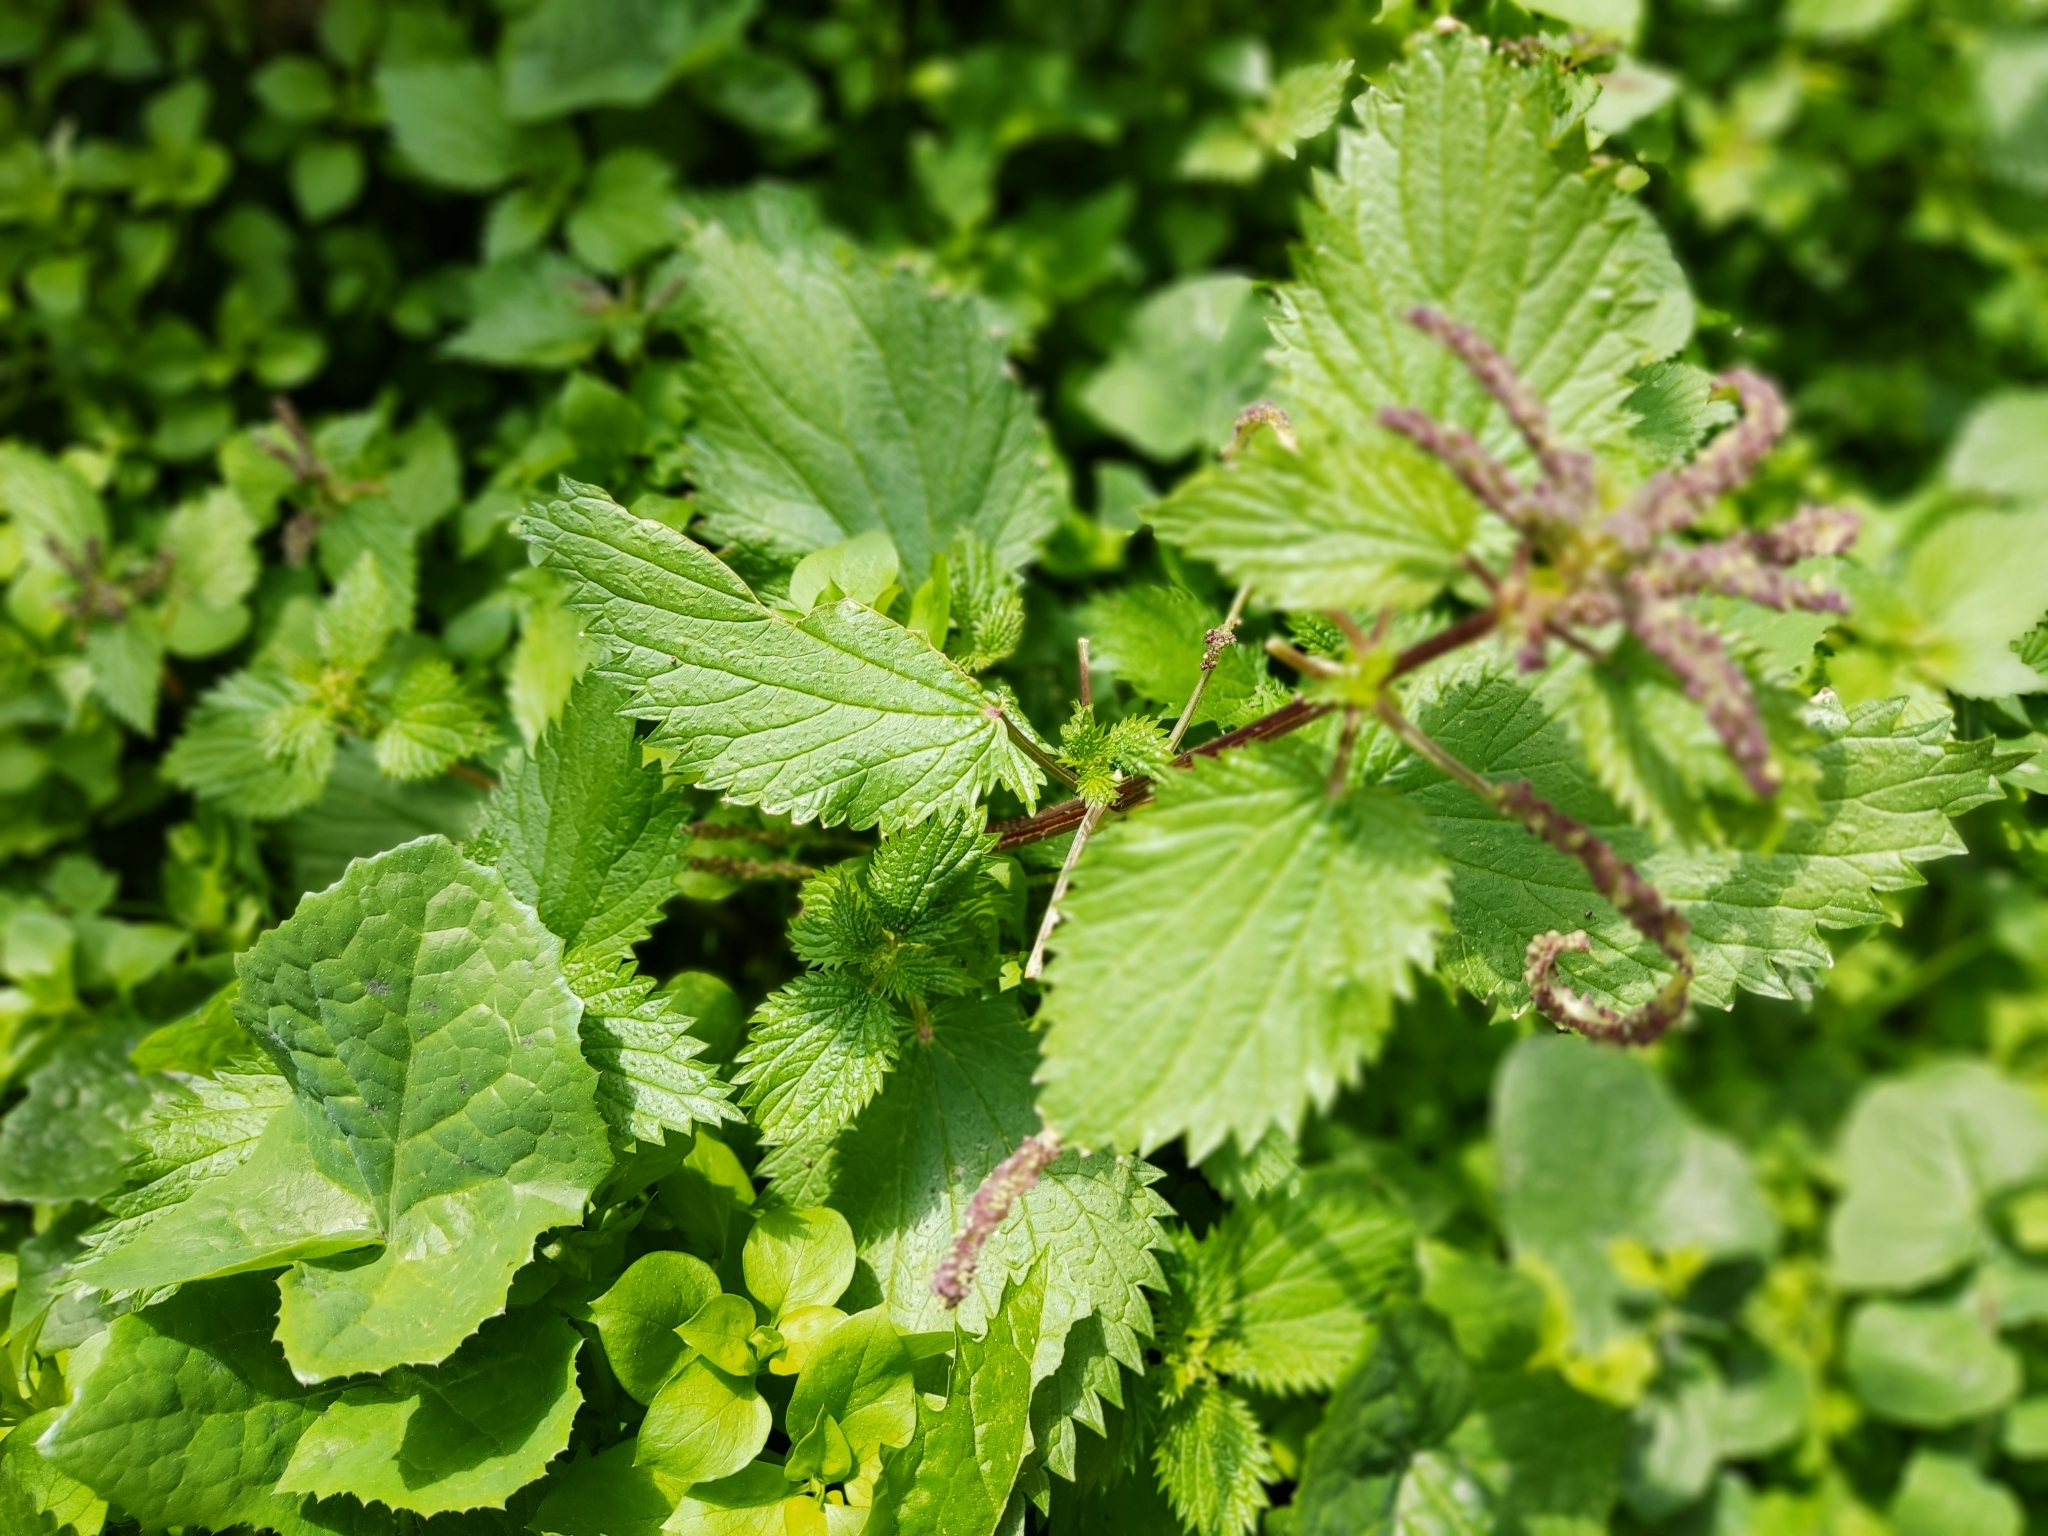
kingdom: Plantae
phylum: Tracheophyta
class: Magnoliopsida
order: Rosales
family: Urticaceae
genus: Urtica
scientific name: Urtica membranacea
